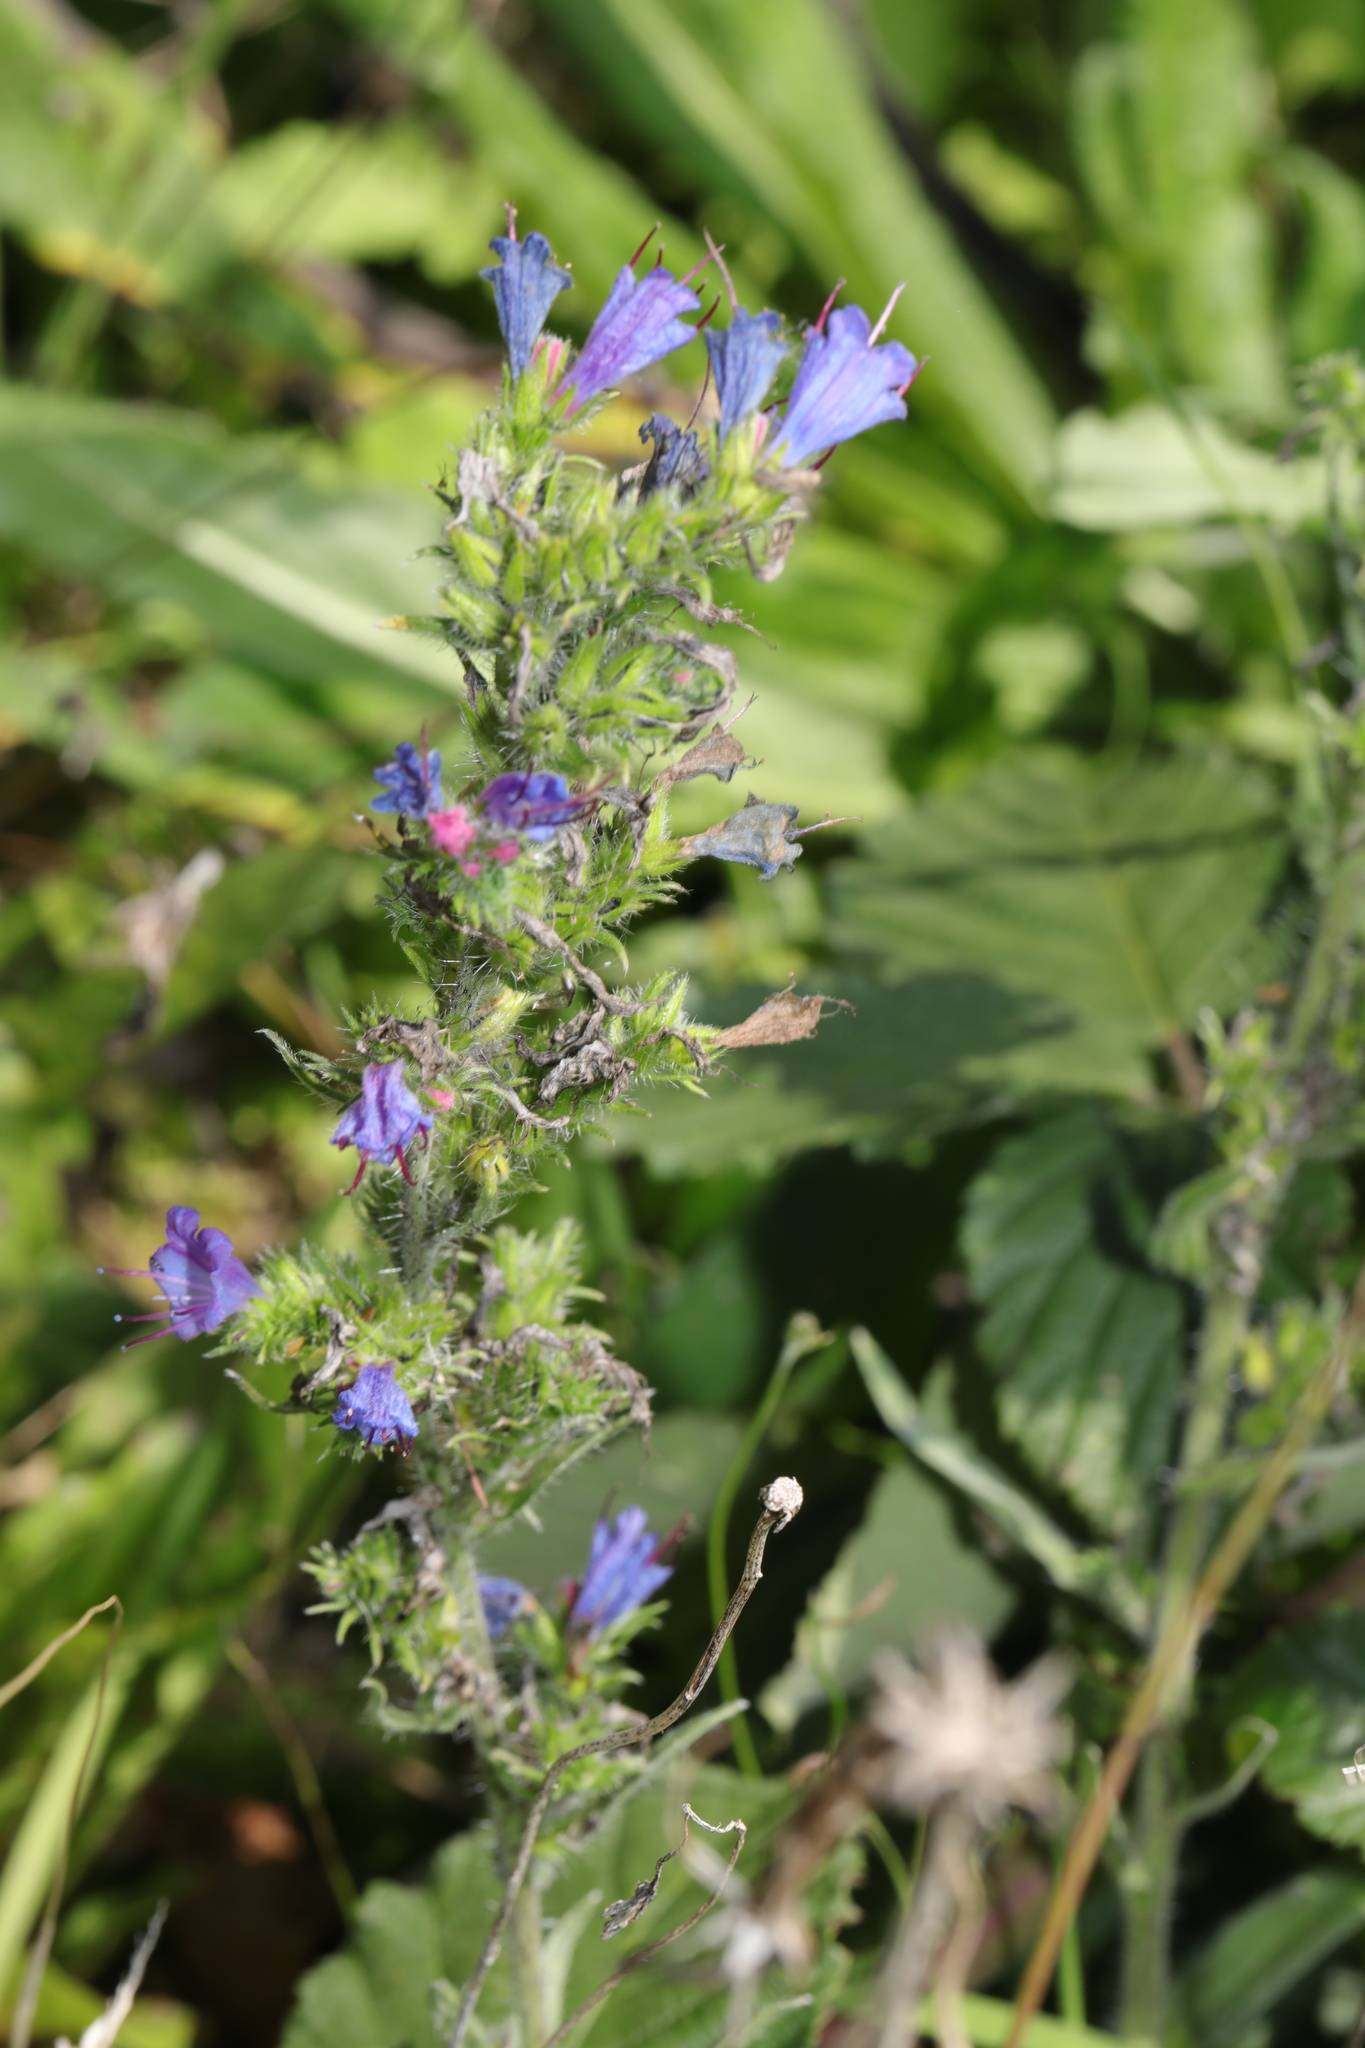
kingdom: Plantae
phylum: Tracheophyta
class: Magnoliopsida
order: Boraginales
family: Boraginaceae
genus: Echium
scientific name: Echium vulgare
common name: Common viper's bugloss
